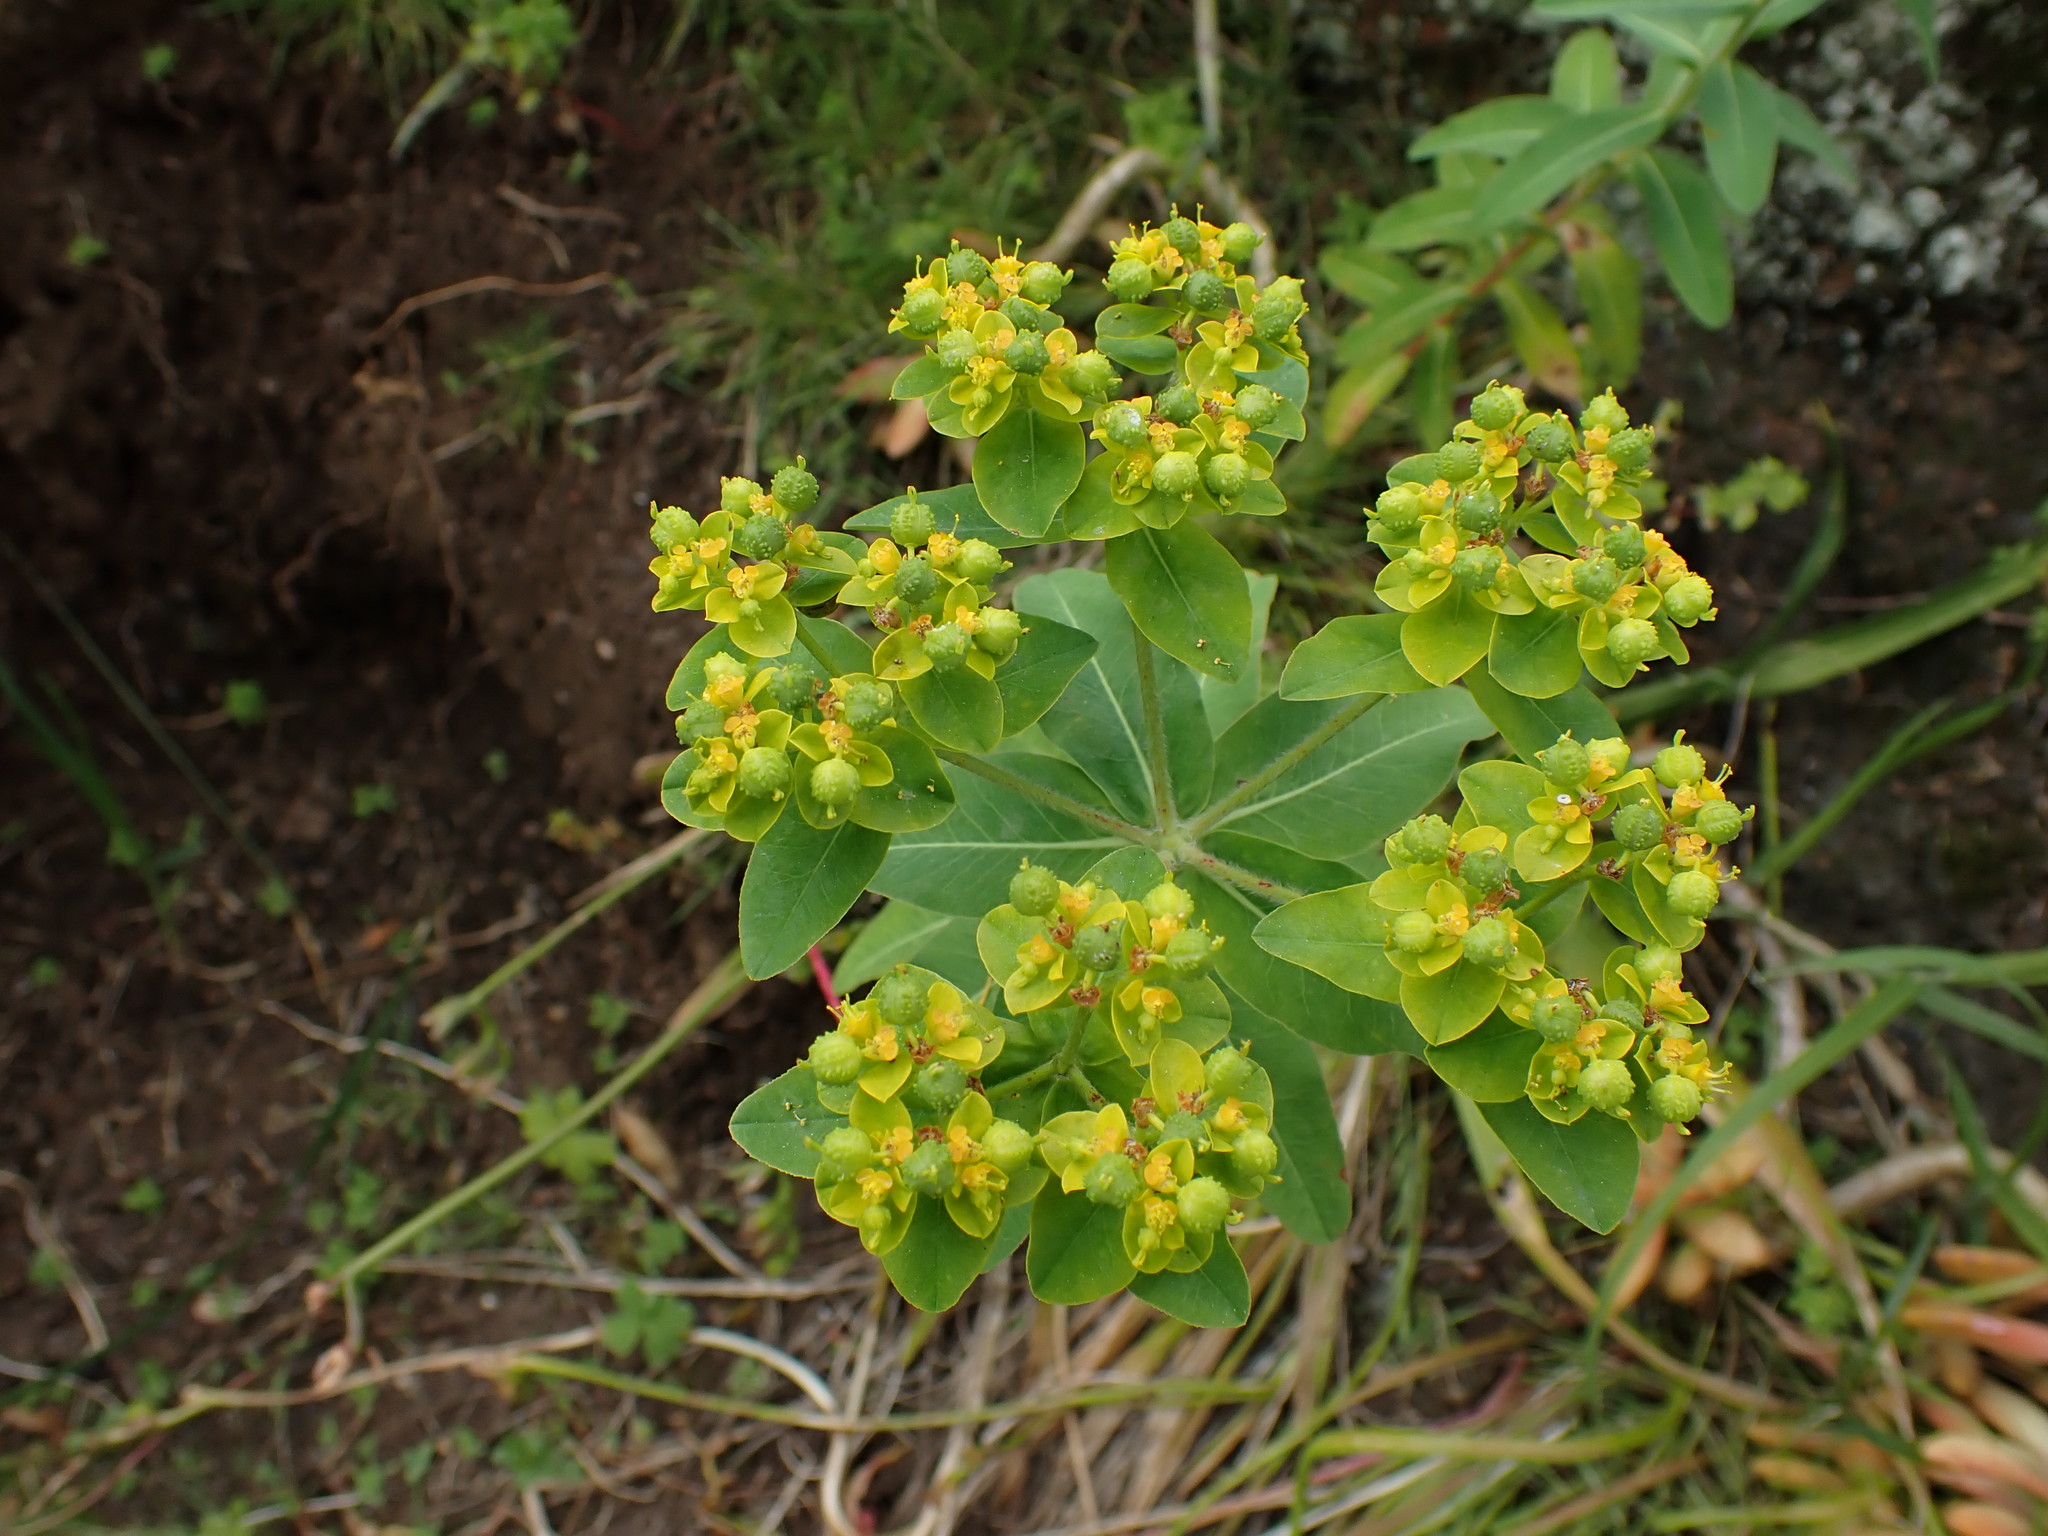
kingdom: Plantae
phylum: Tracheophyta
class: Magnoliopsida
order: Malpighiales
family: Euphorbiaceae
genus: Euphorbia
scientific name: Euphorbia oblongata
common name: Balkan spurge
